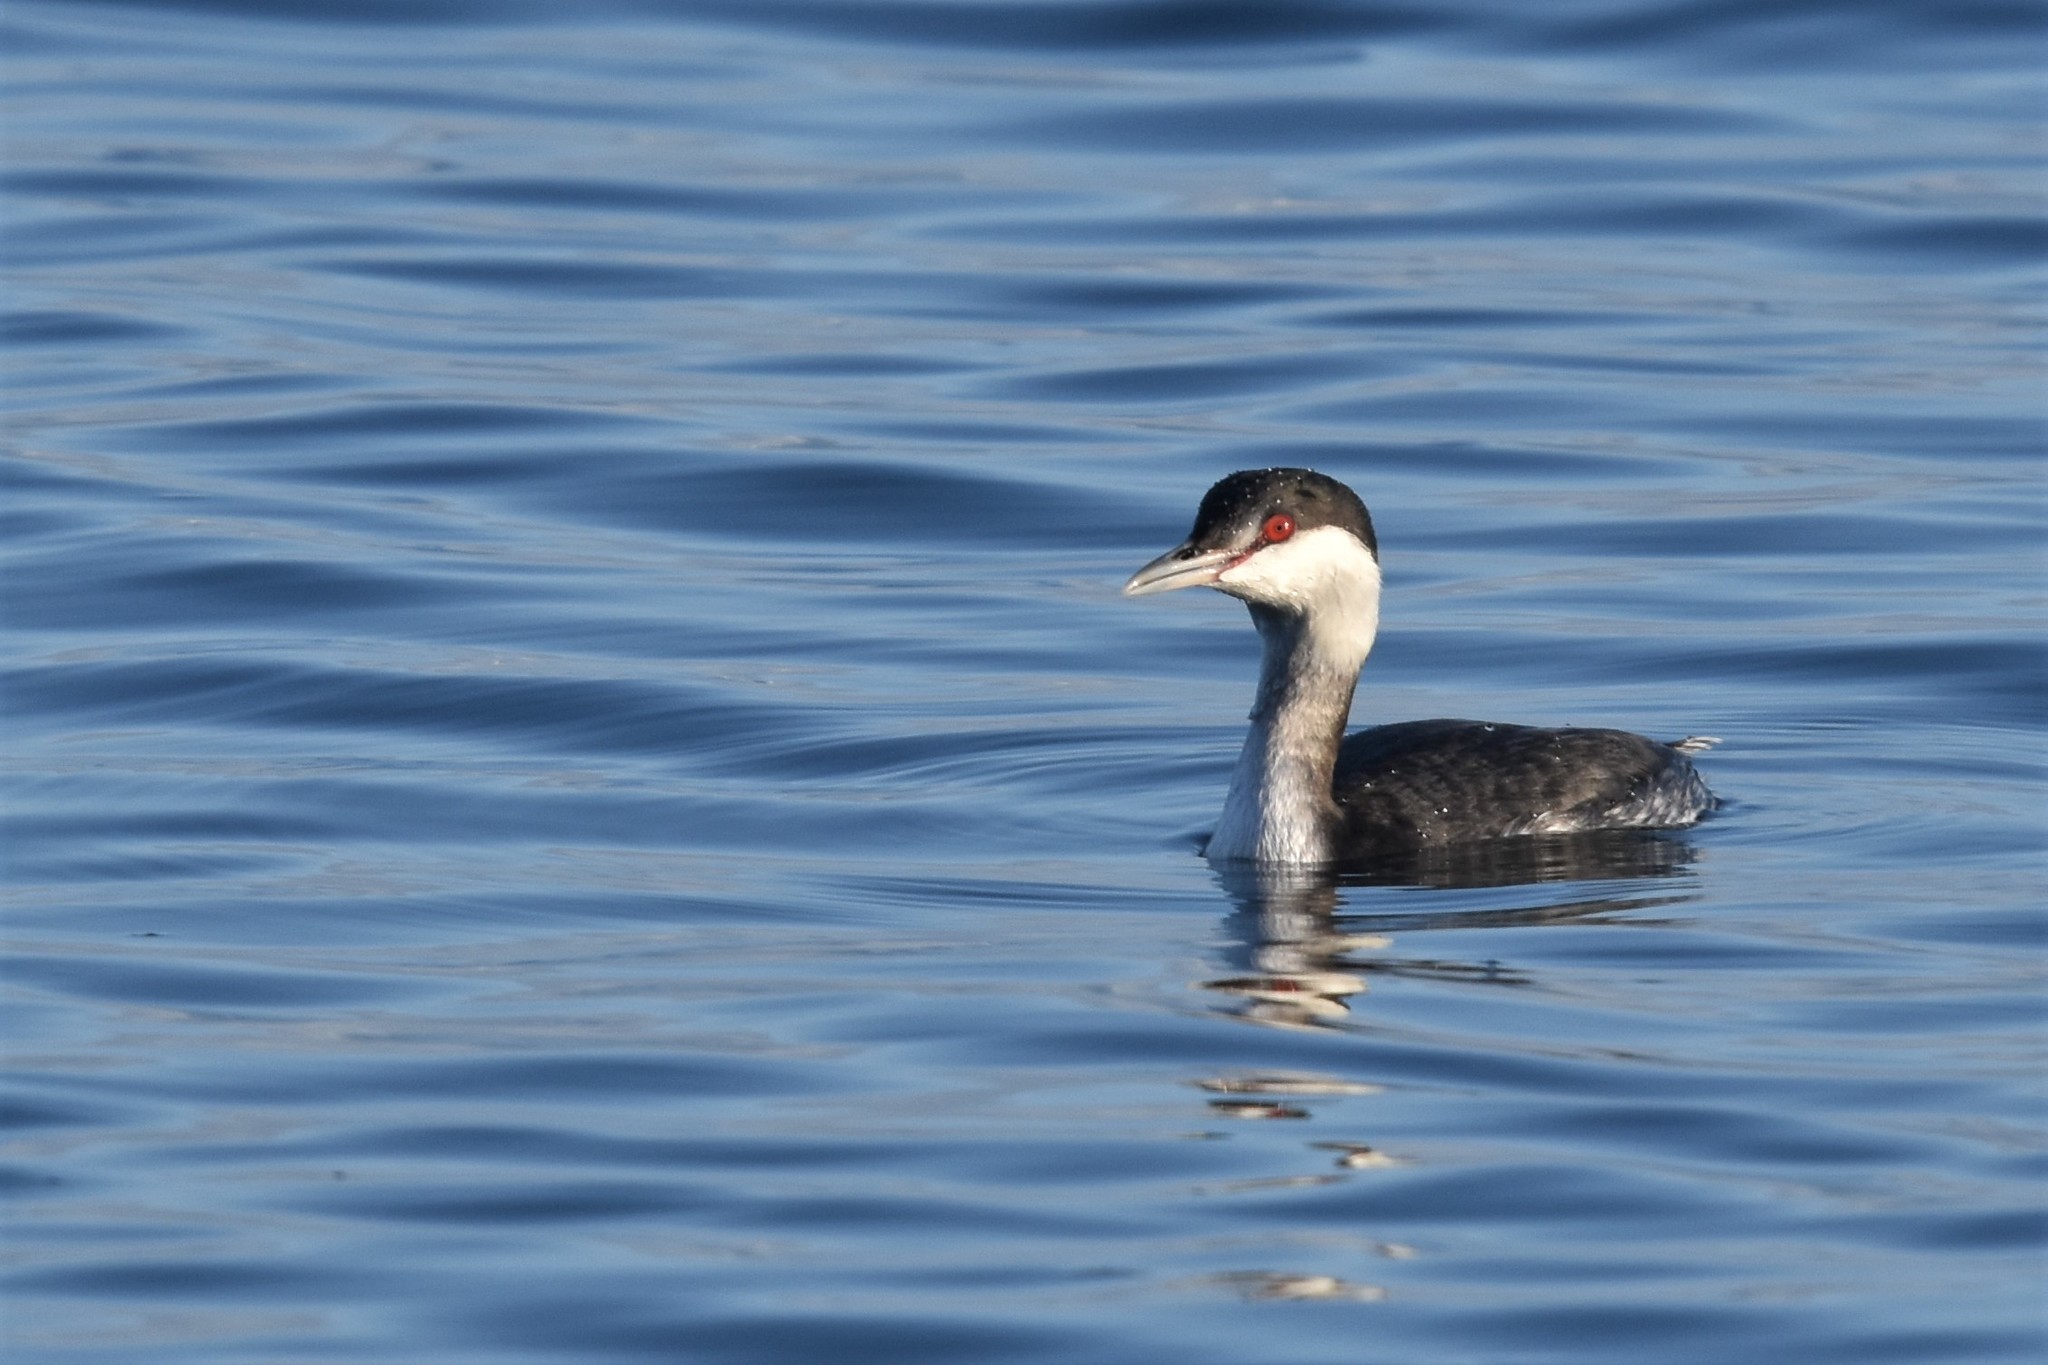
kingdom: Animalia
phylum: Chordata
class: Aves
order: Podicipediformes
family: Podicipedidae
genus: Podiceps
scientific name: Podiceps auritus
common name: Horned grebe
